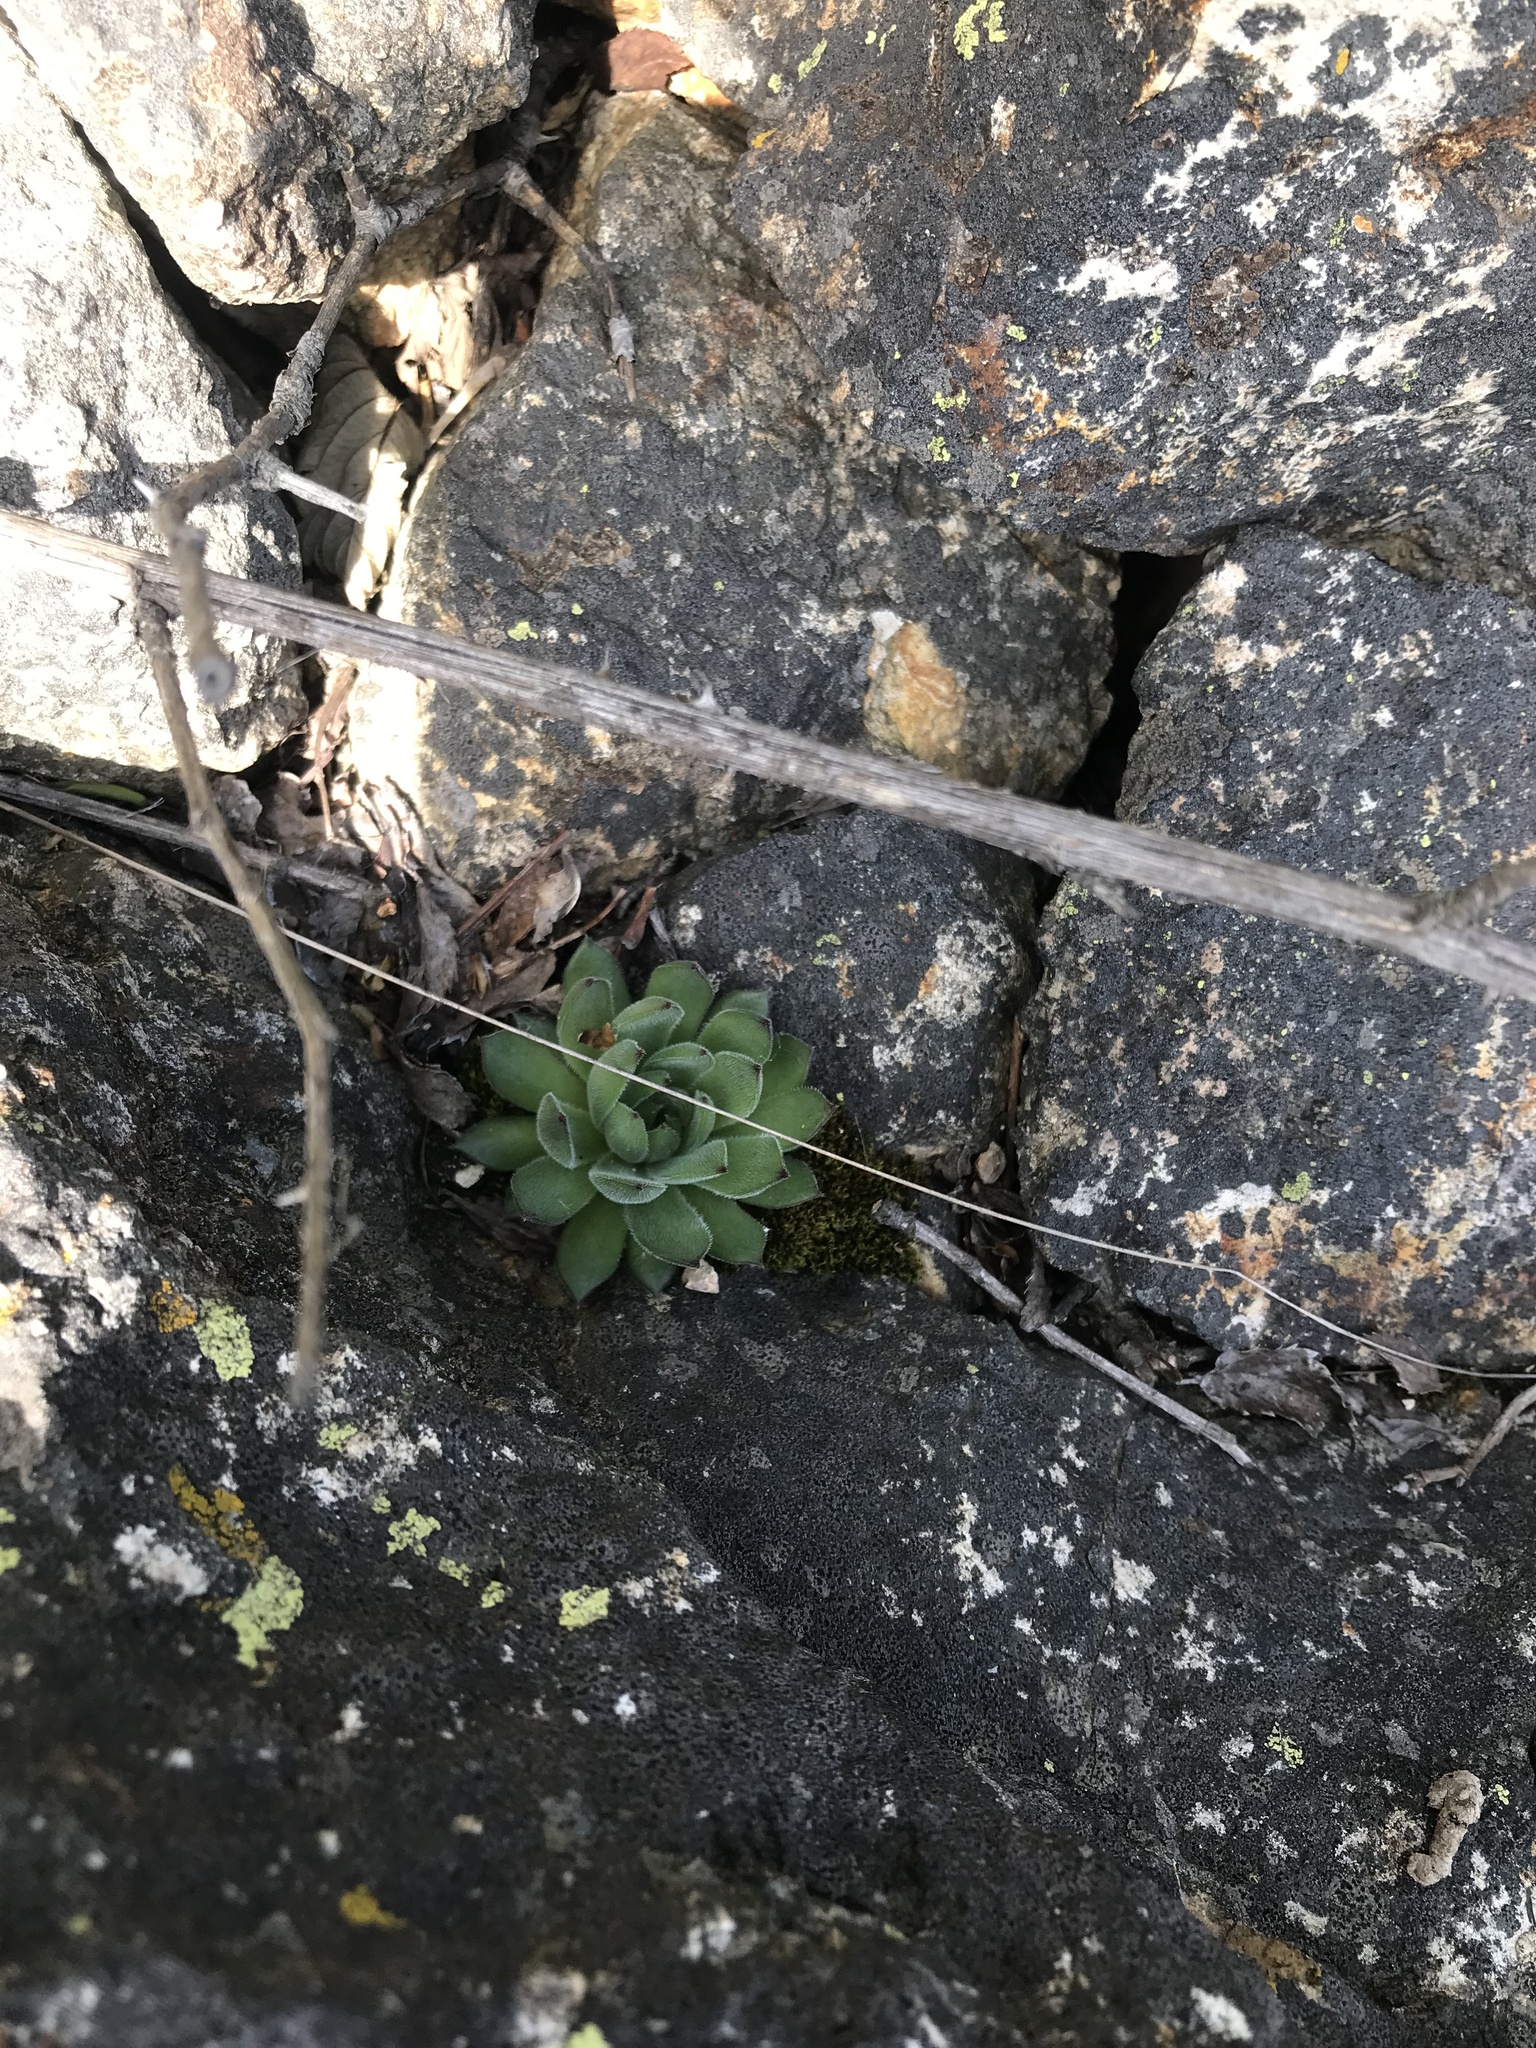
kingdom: Plantae
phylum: Tracheophyta
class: Magnoliopsida
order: Saxifragales
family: Crassulaceae
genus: Sempervivum
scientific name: Sempervivum marmoreum
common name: Houseleek
